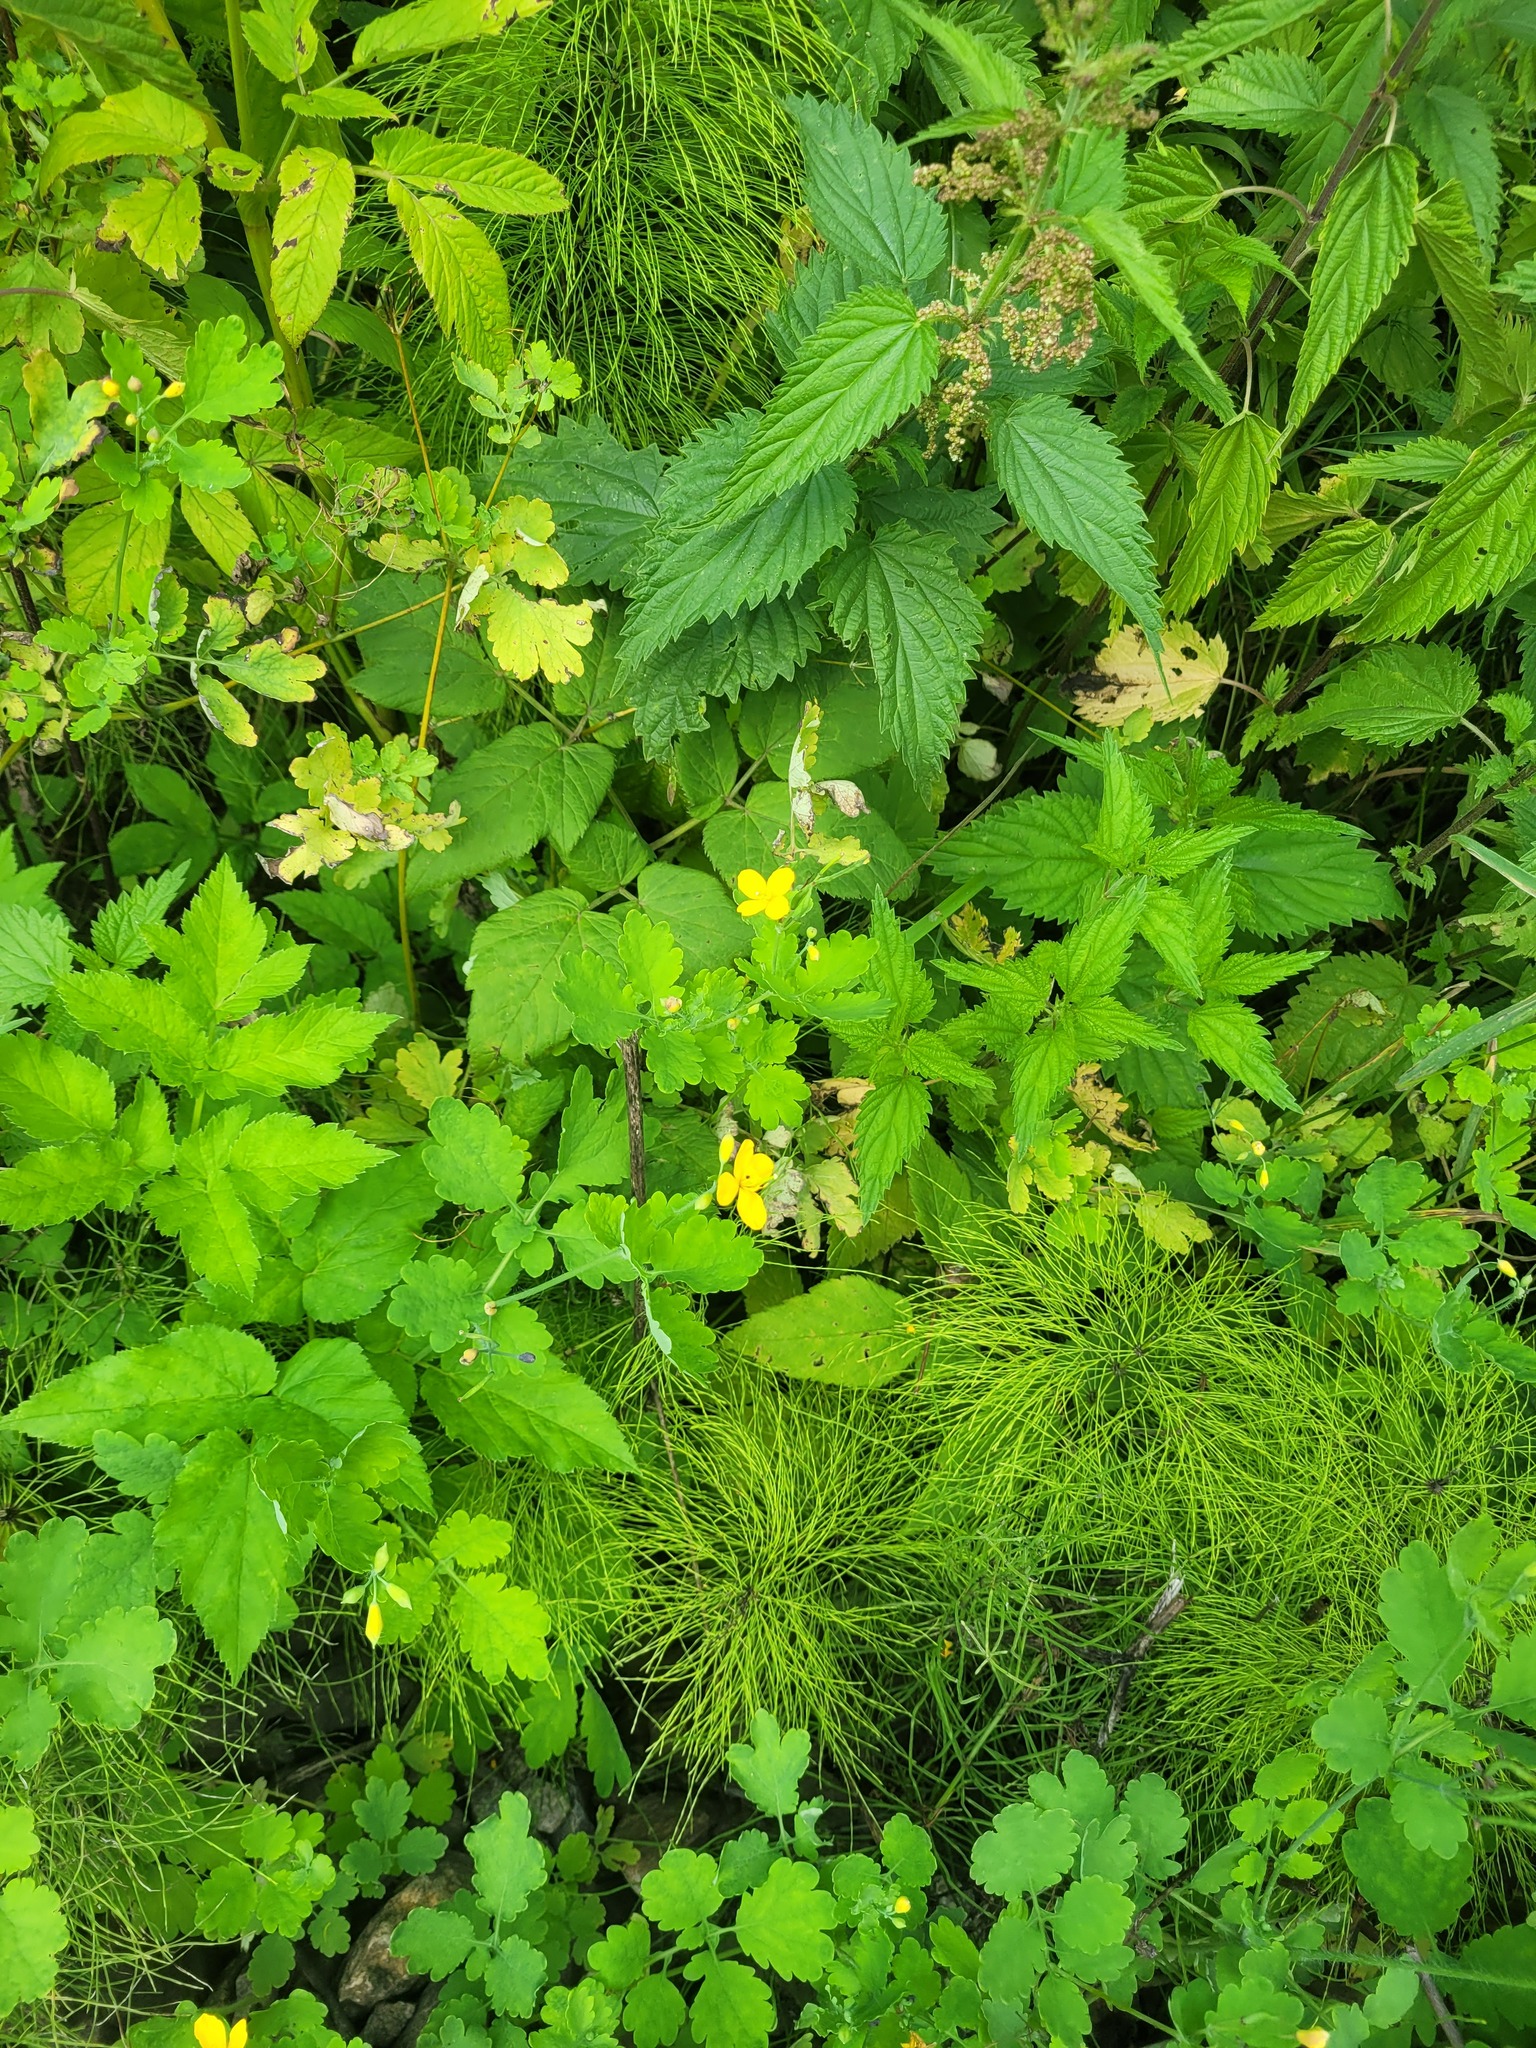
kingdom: Plantae
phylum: Tracheophyta
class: Magnoliopsida
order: Ranunculales
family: Papaveraceae
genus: Chelidonium
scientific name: Chelidonium majus
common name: Greater celandine
